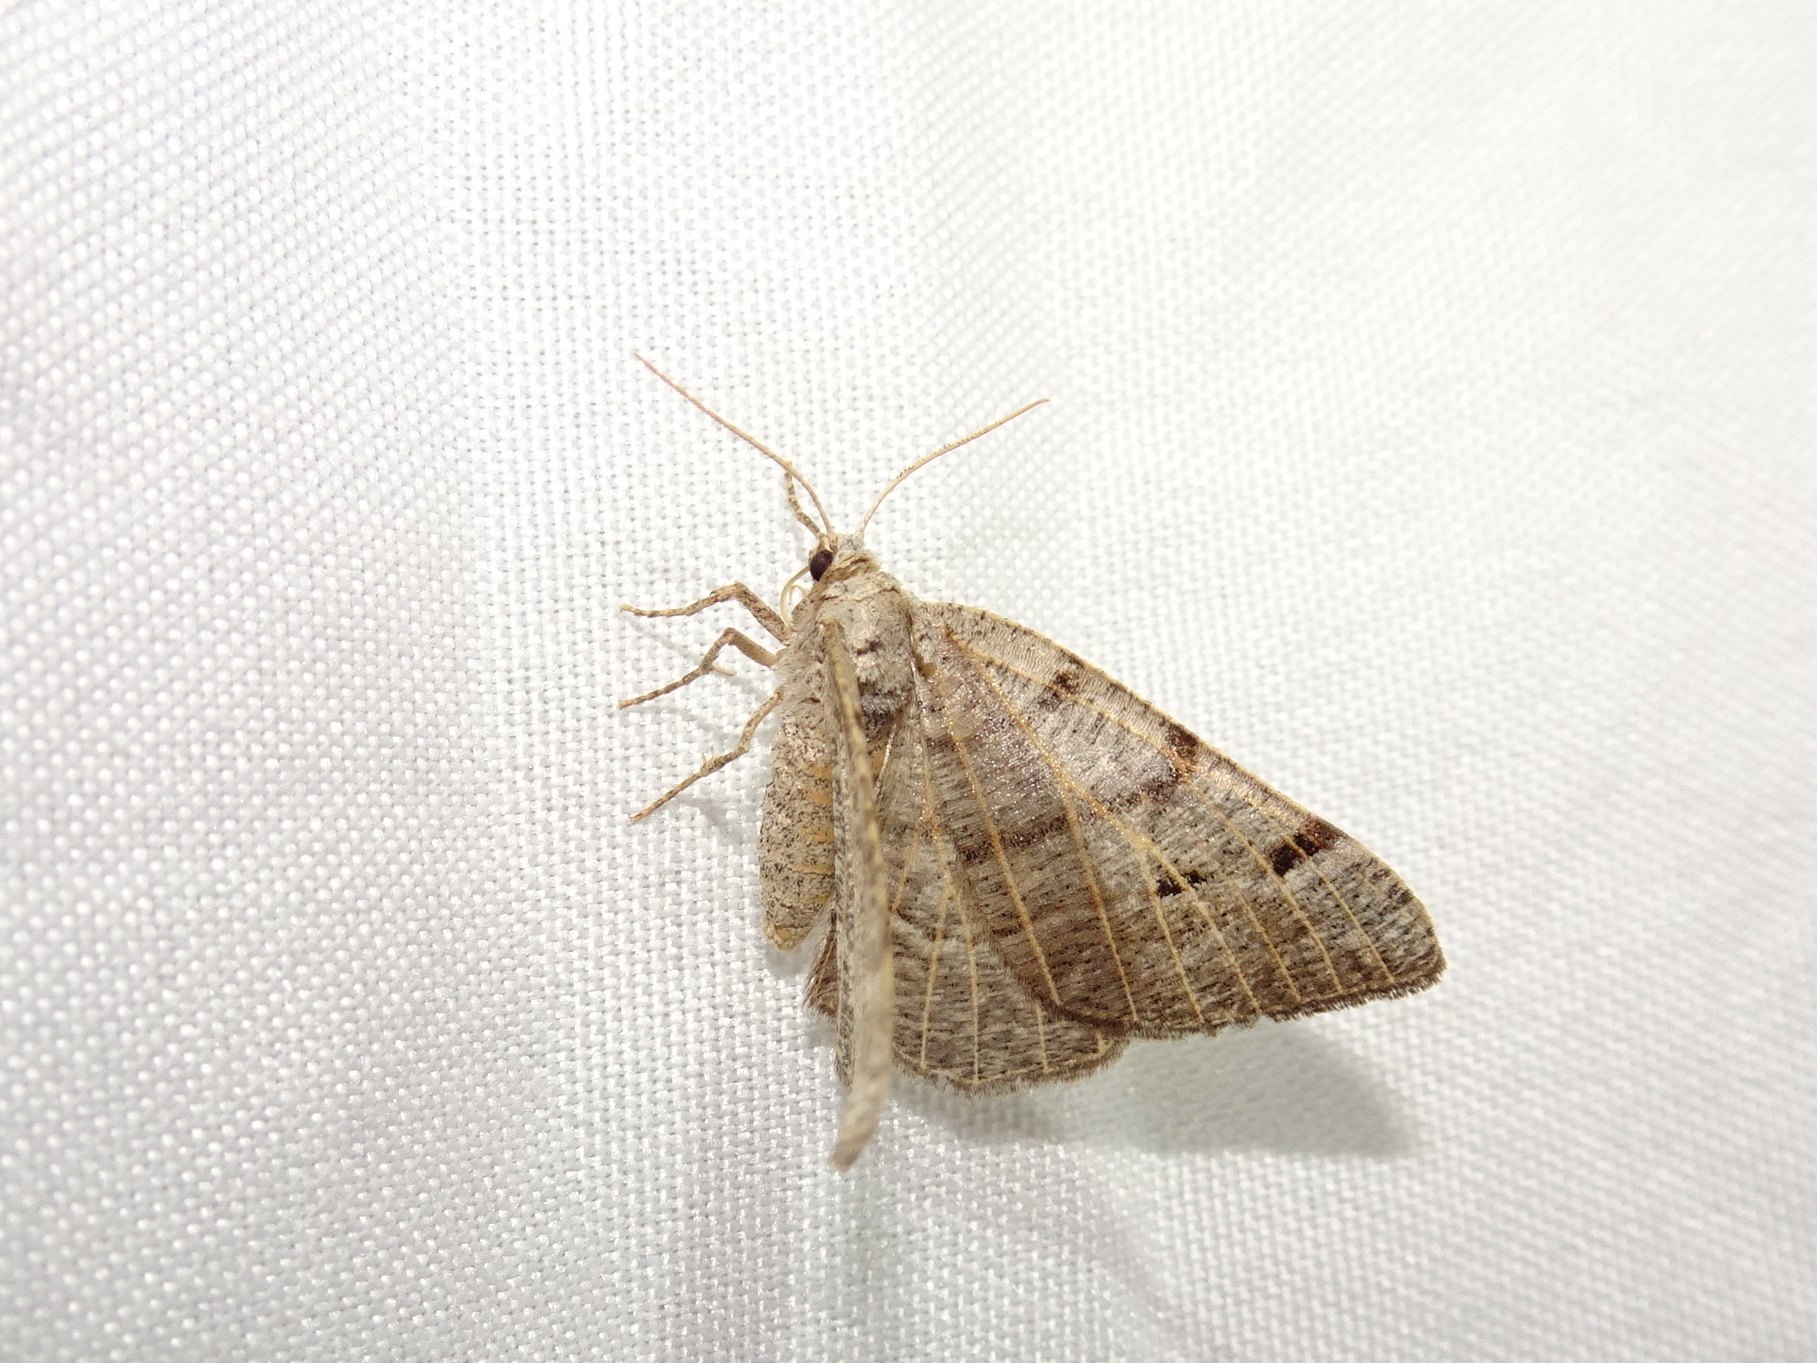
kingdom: Animalia
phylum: Arthropoda
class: Insecta
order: Lepidoptera
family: Geometridae
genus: Isturgia
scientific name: Isturgia dislocaria
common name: Pale-viened enconista
